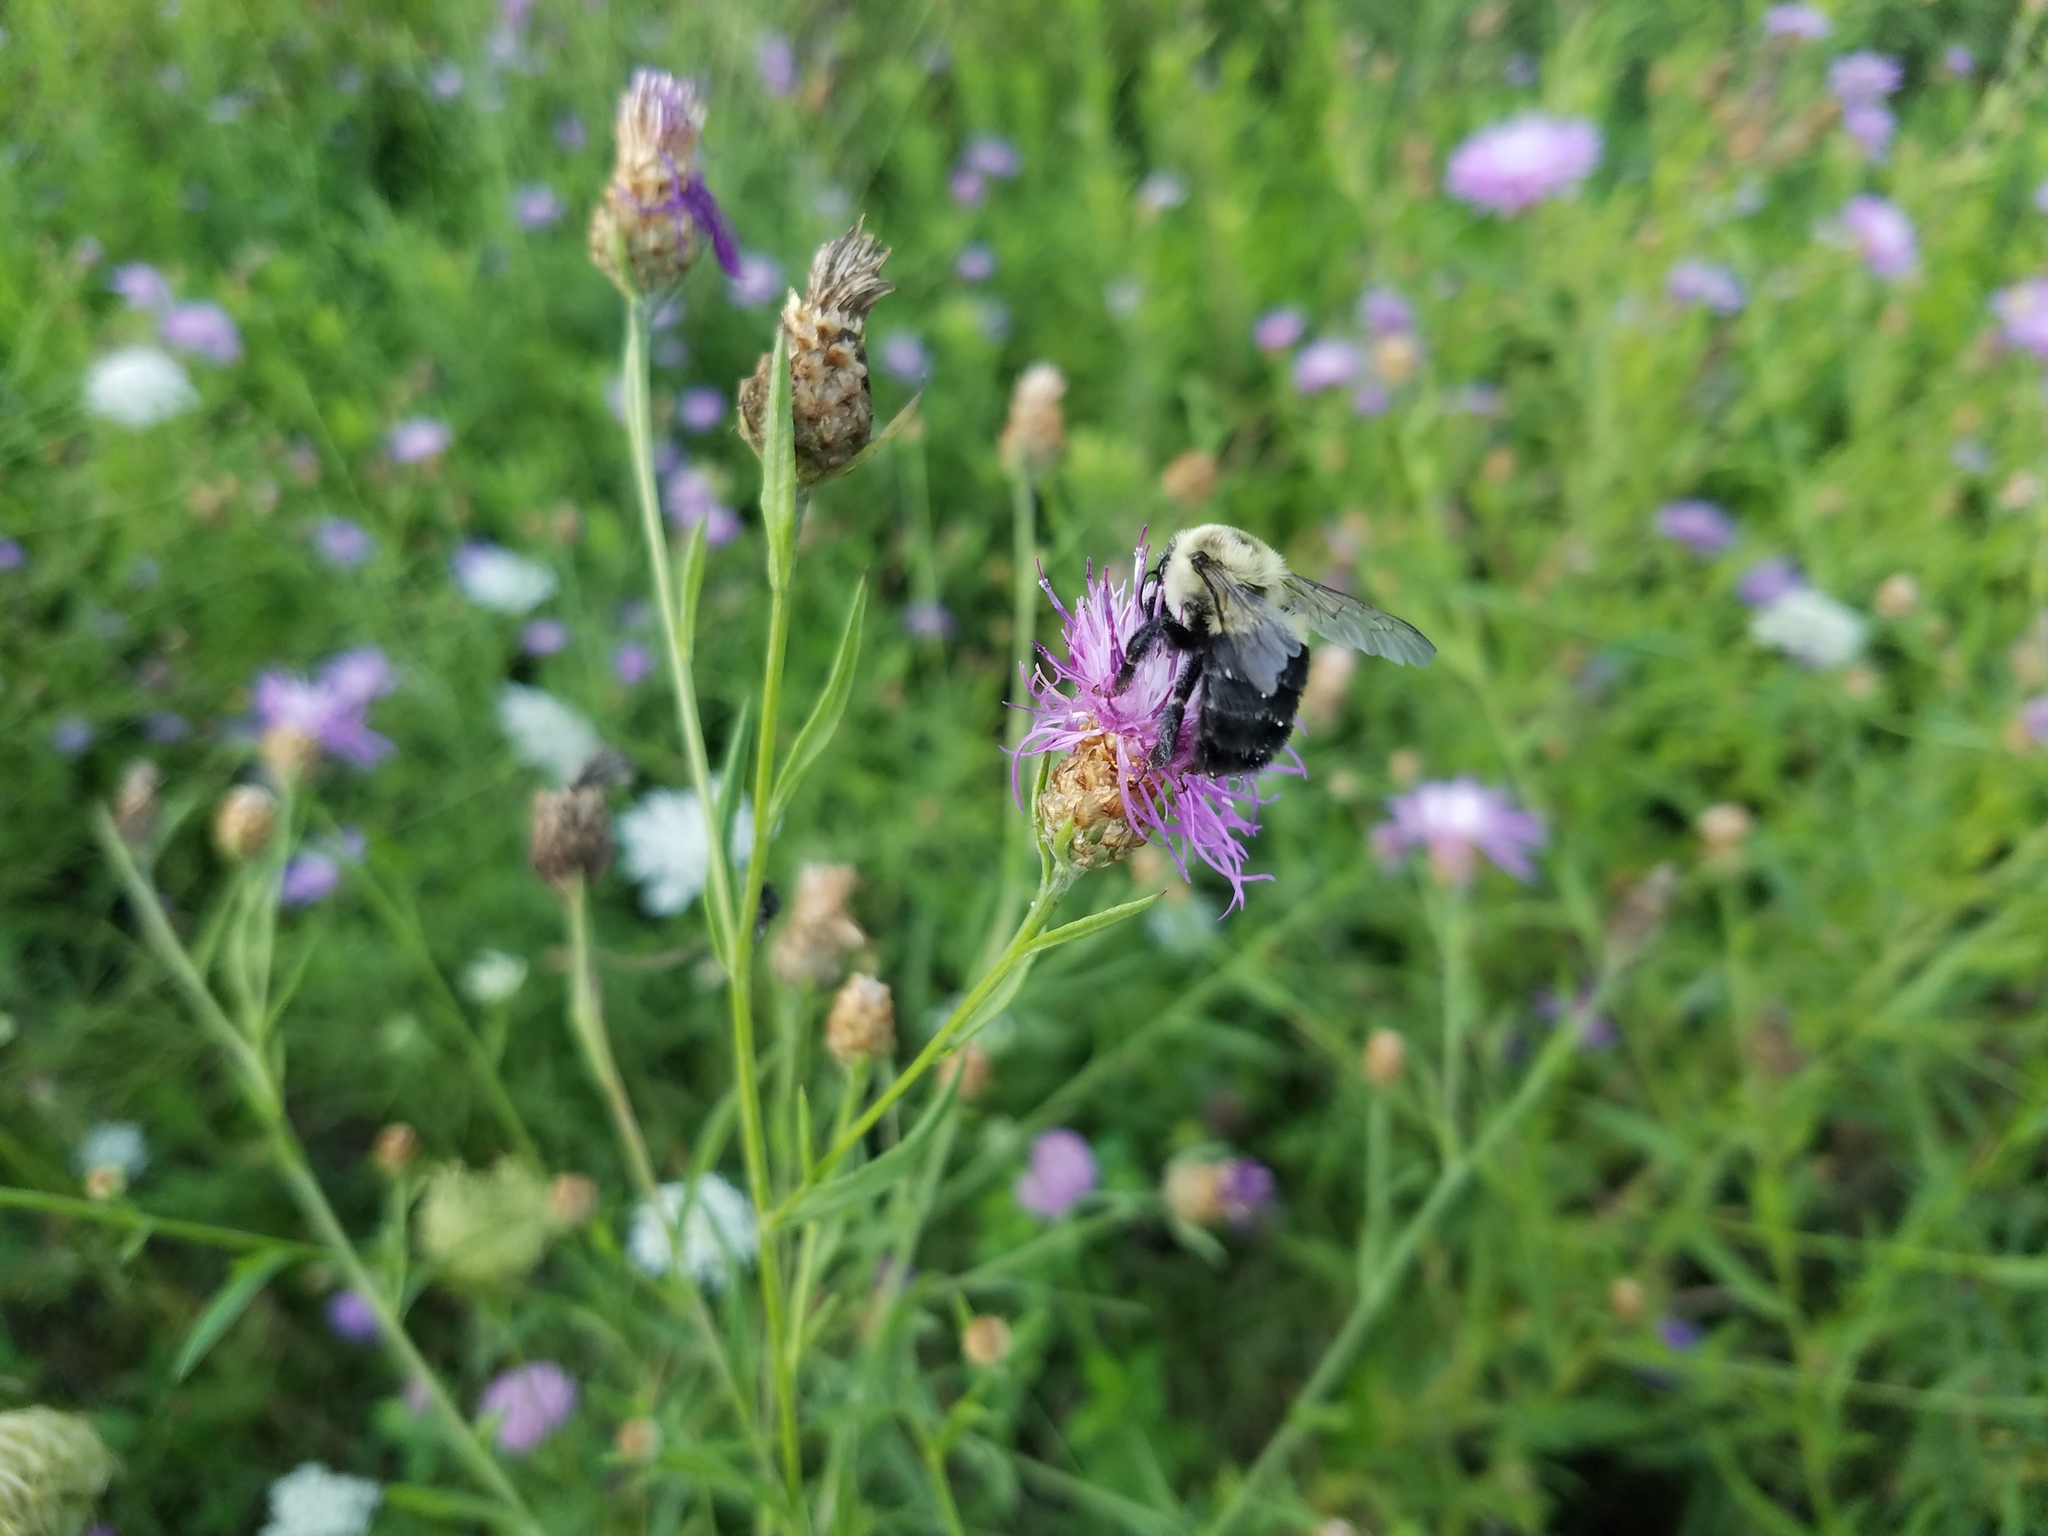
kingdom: Animalia
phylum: Arthropoda
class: Insecta
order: Hymenoptera
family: Apidae
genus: Bombus
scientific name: Bombus impatiens
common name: Common eastern bumble bee
